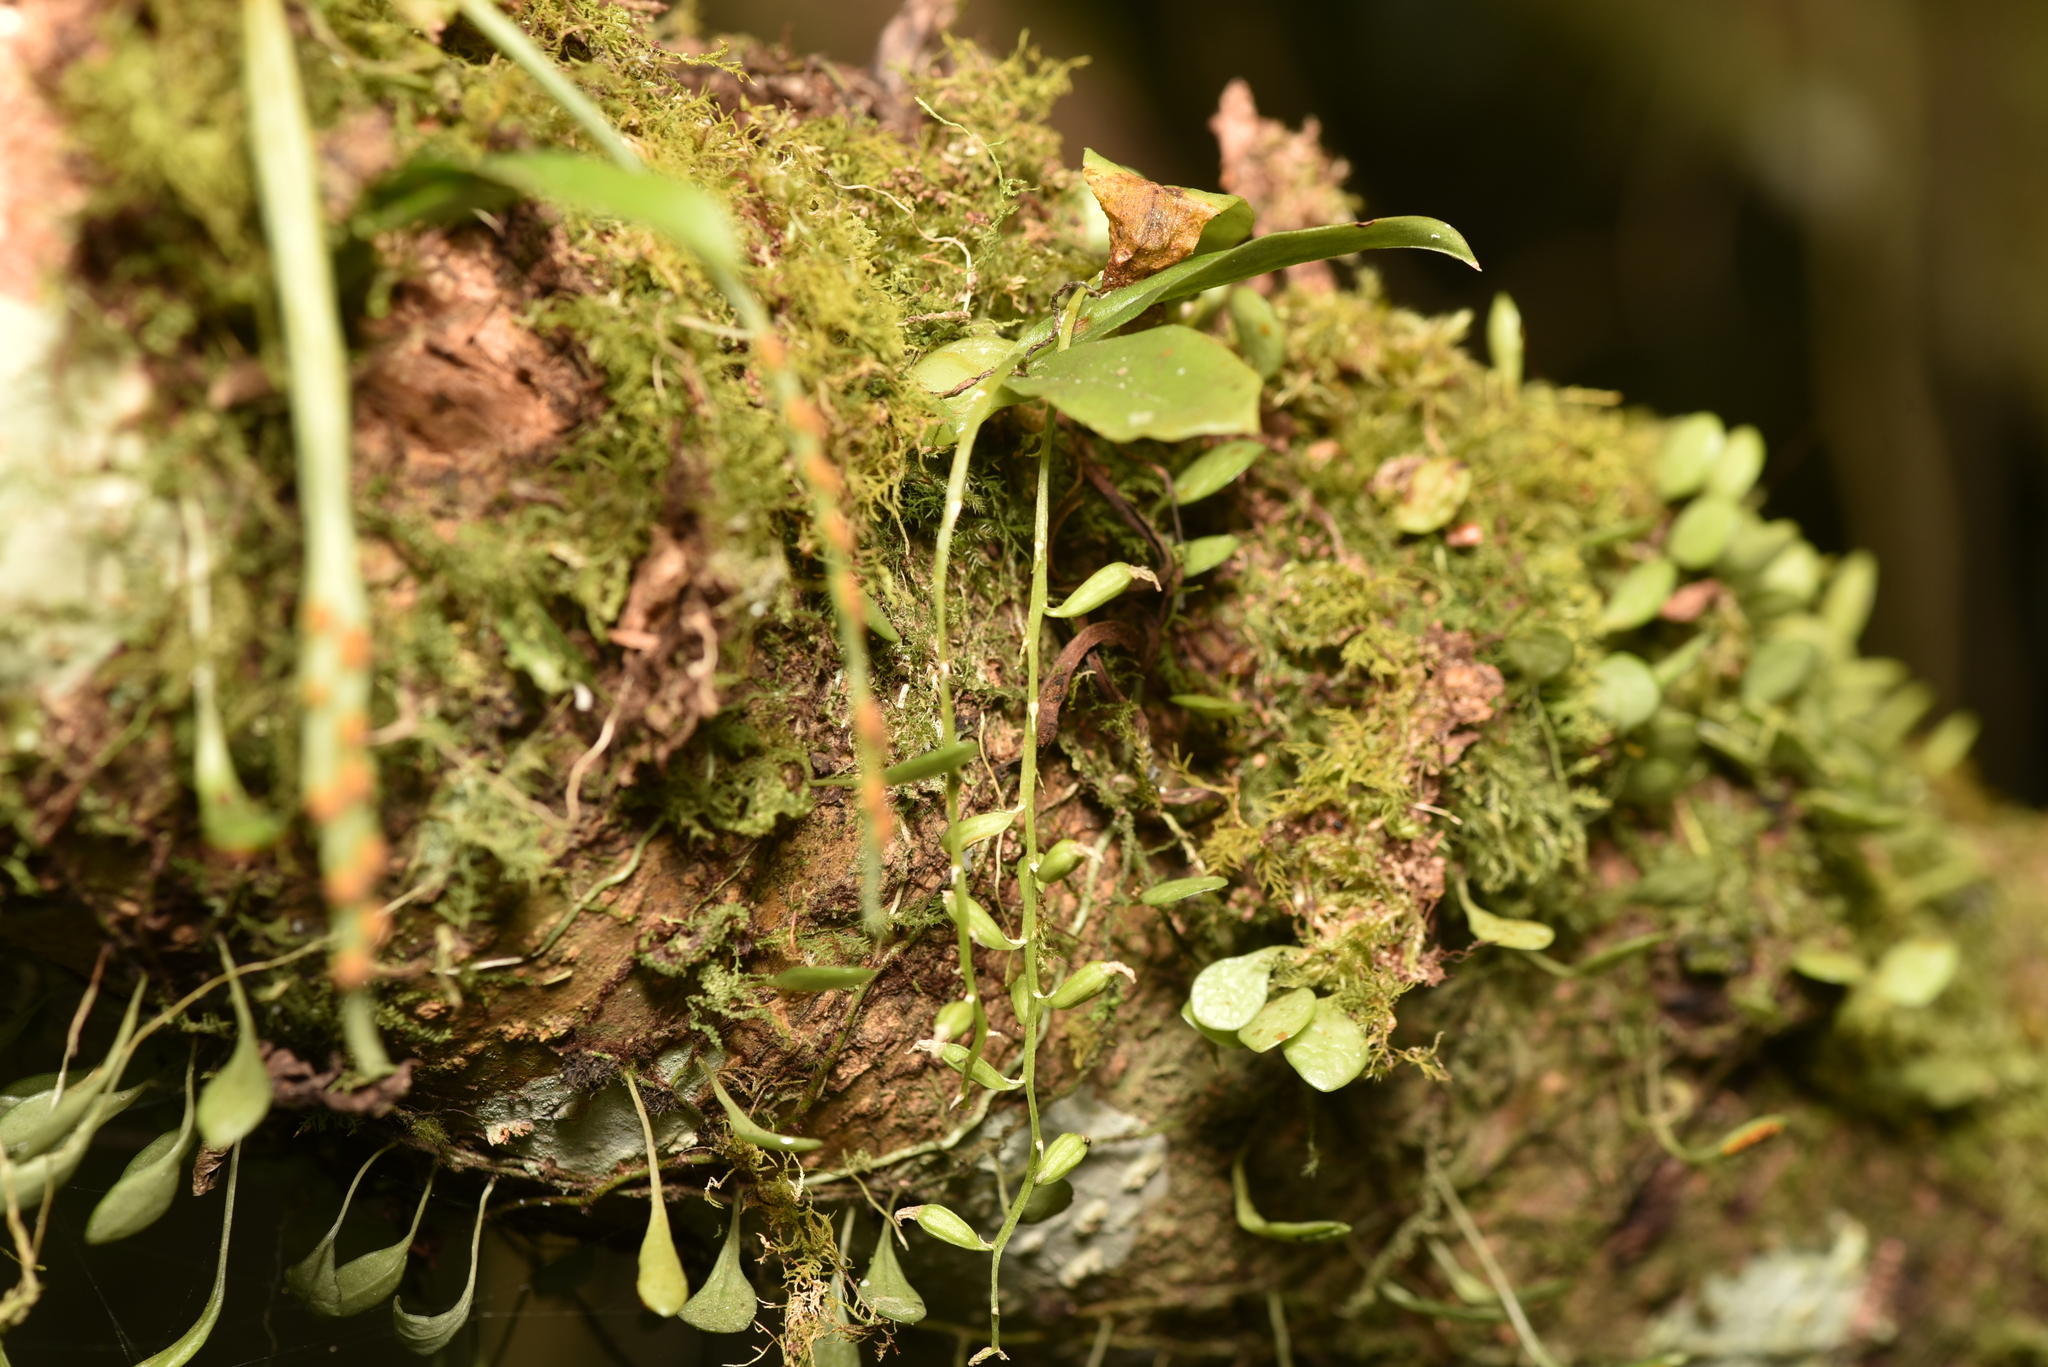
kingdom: Plantae
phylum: Tracheophyta
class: Liliopsida
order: Asparagales
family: Orchidaceae
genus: Liparis
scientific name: Liparis elliptica
